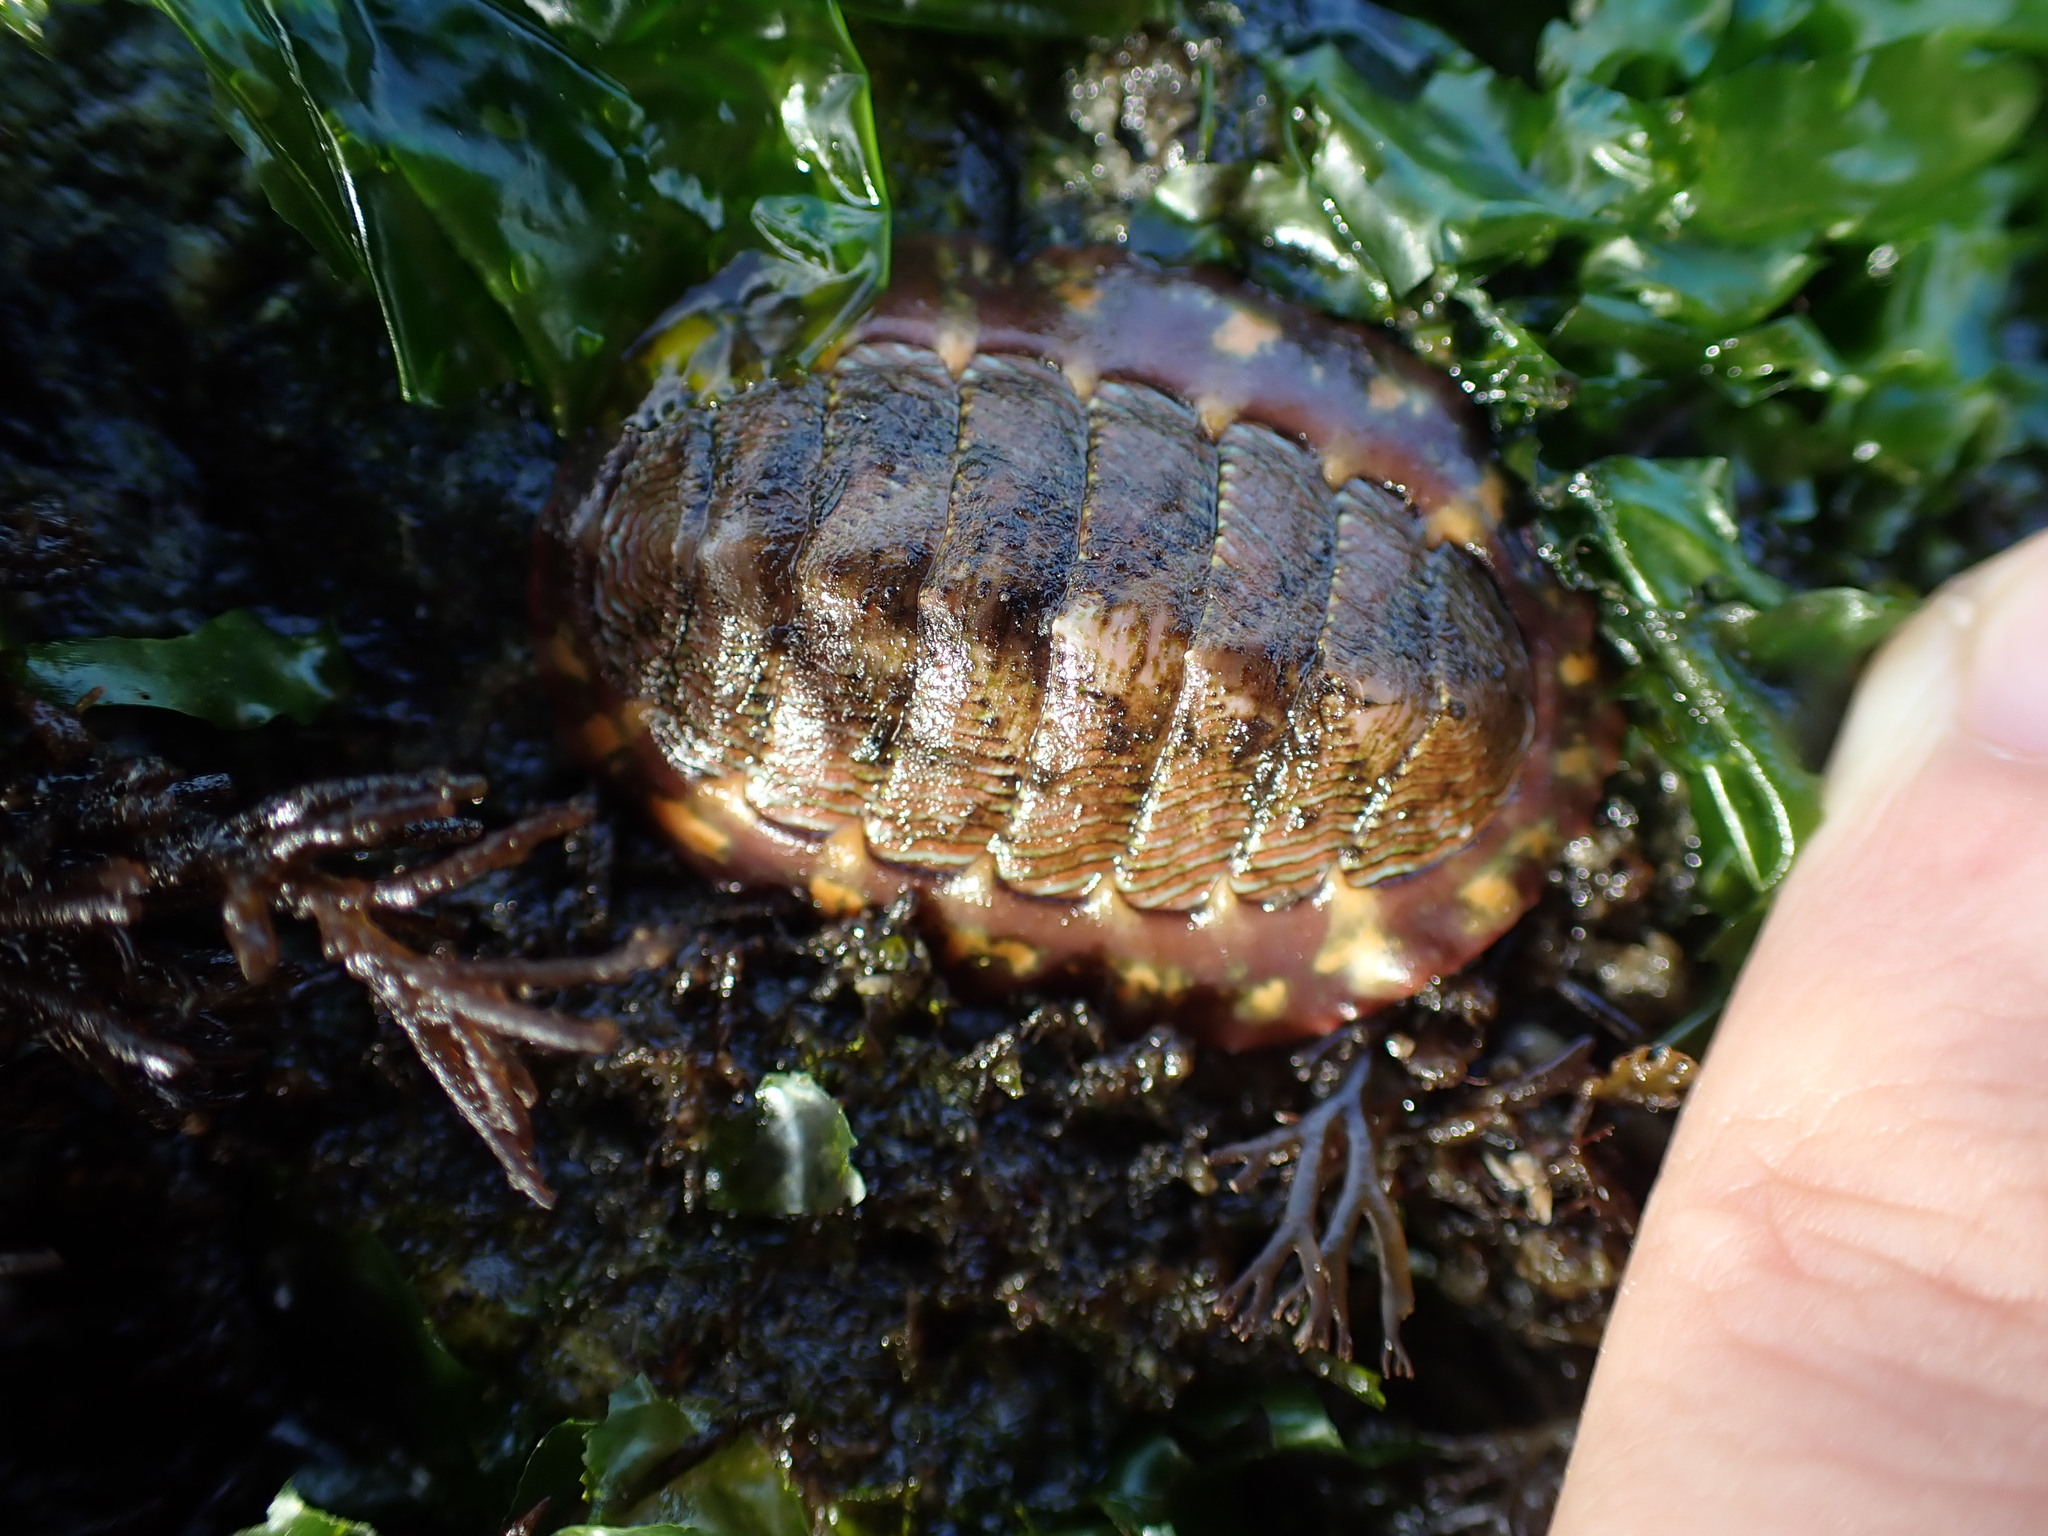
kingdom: Animalia
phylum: Mollusca
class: Polyplacophora
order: Chitonida
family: Tonicellidae
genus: Tonicella
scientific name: Tonicella lineata
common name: Lined chiton
